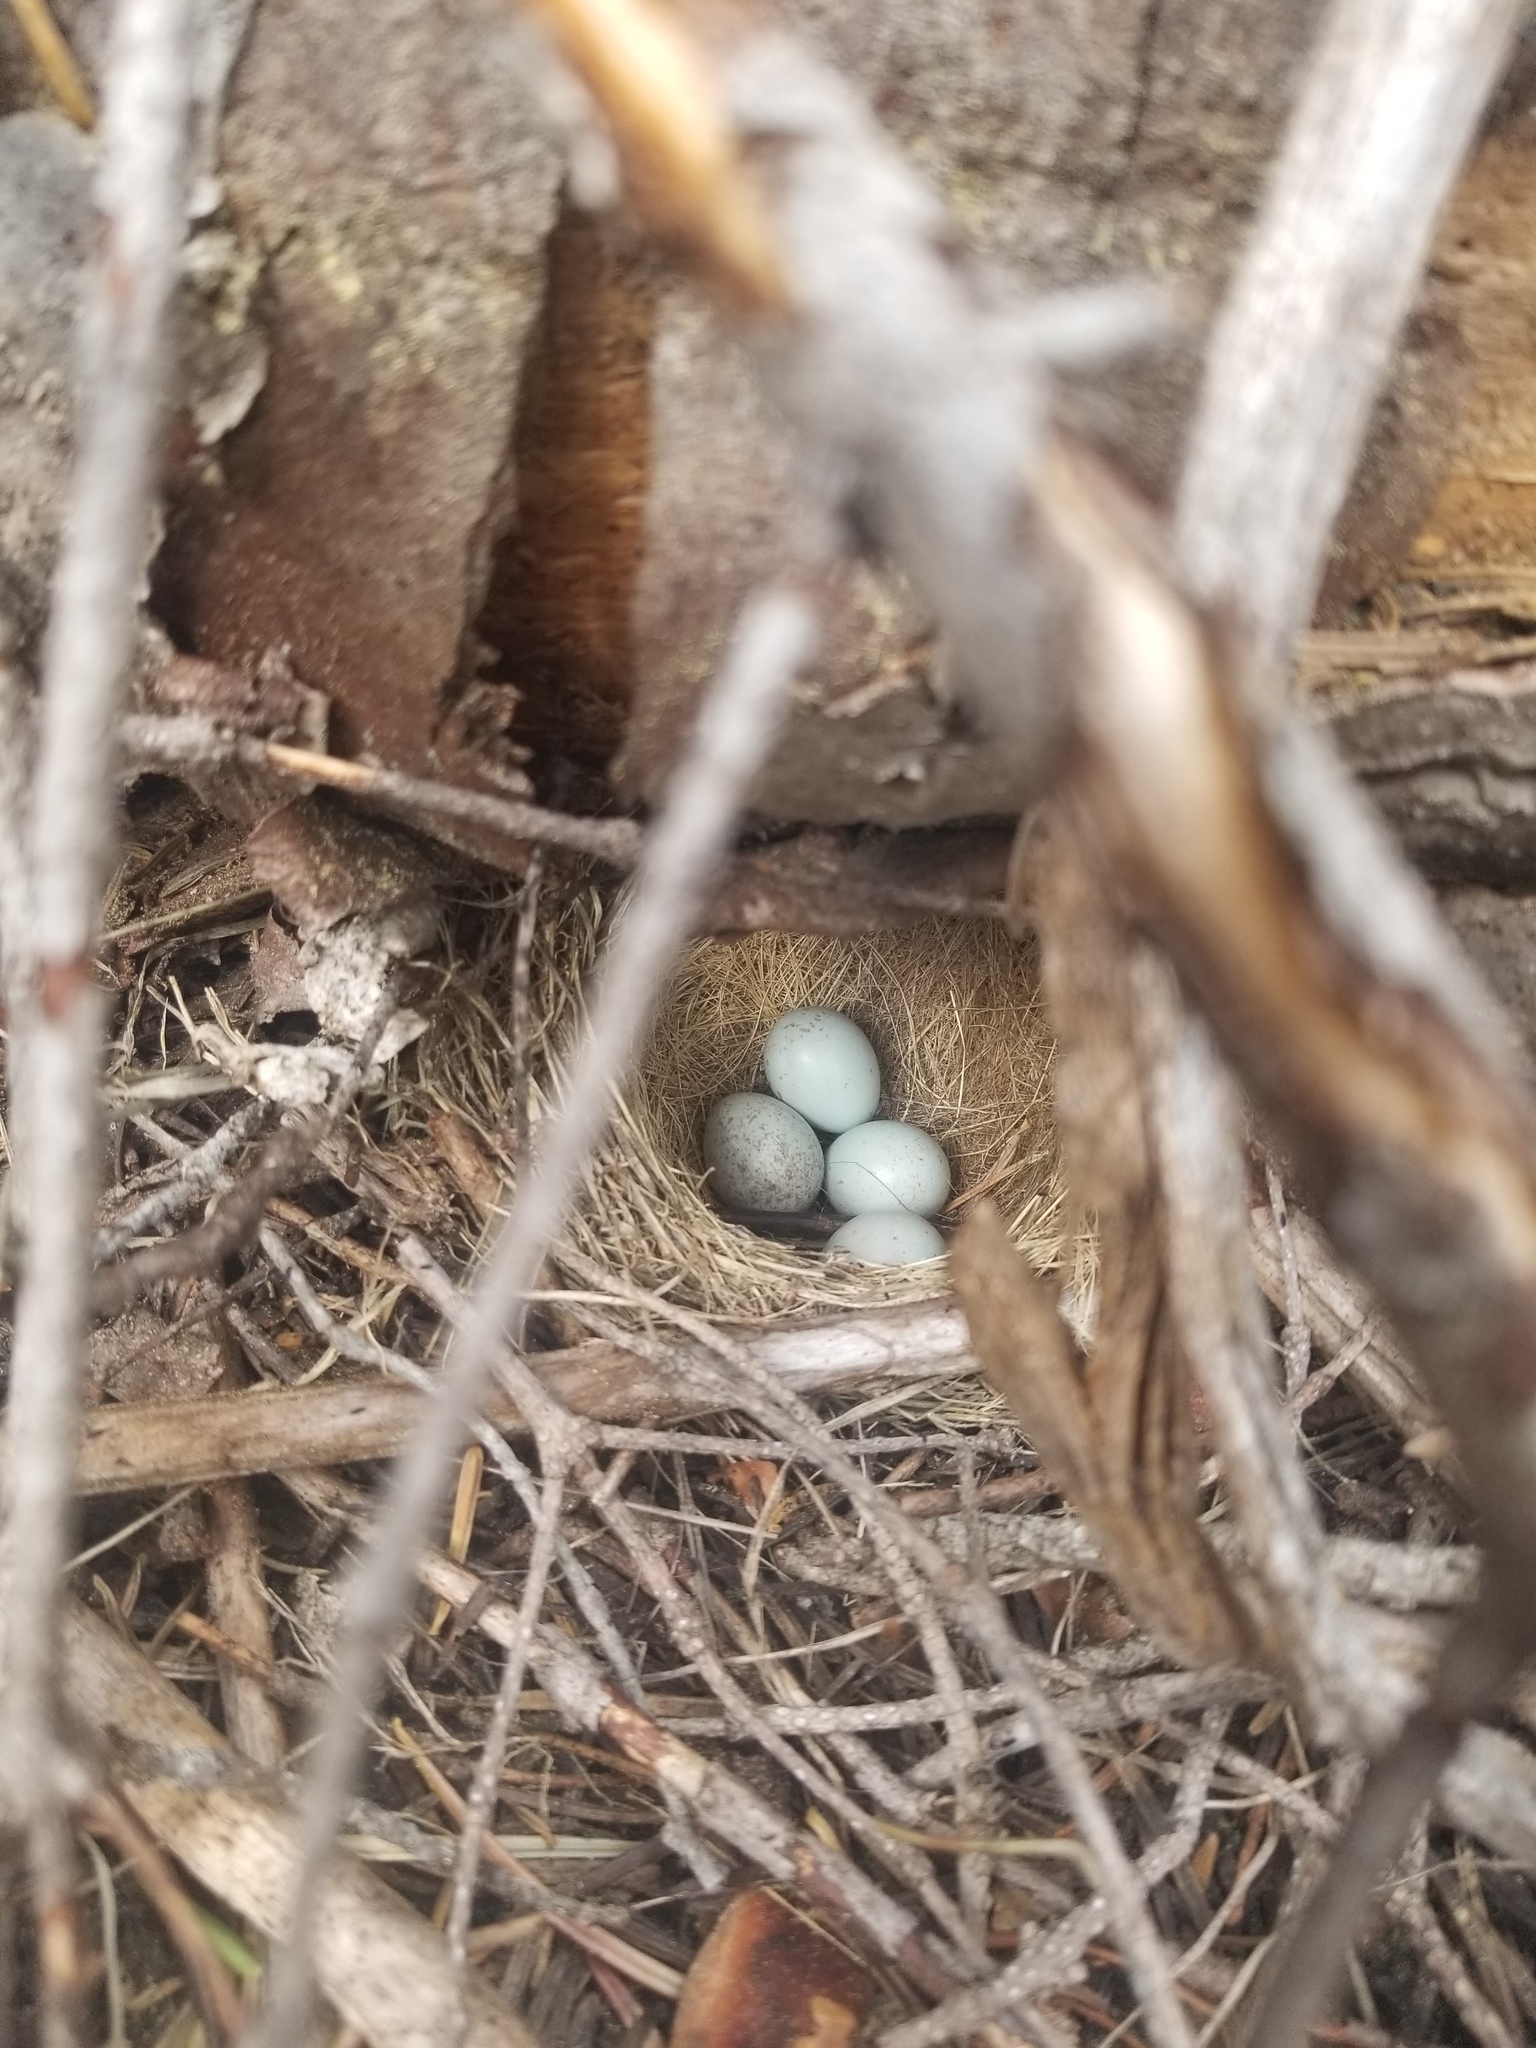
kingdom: Animalia
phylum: Chordata
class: Aves
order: Passeriformes
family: Passerellidae
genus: Junco
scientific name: Junco hyemalis
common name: Dark-eyed junco
